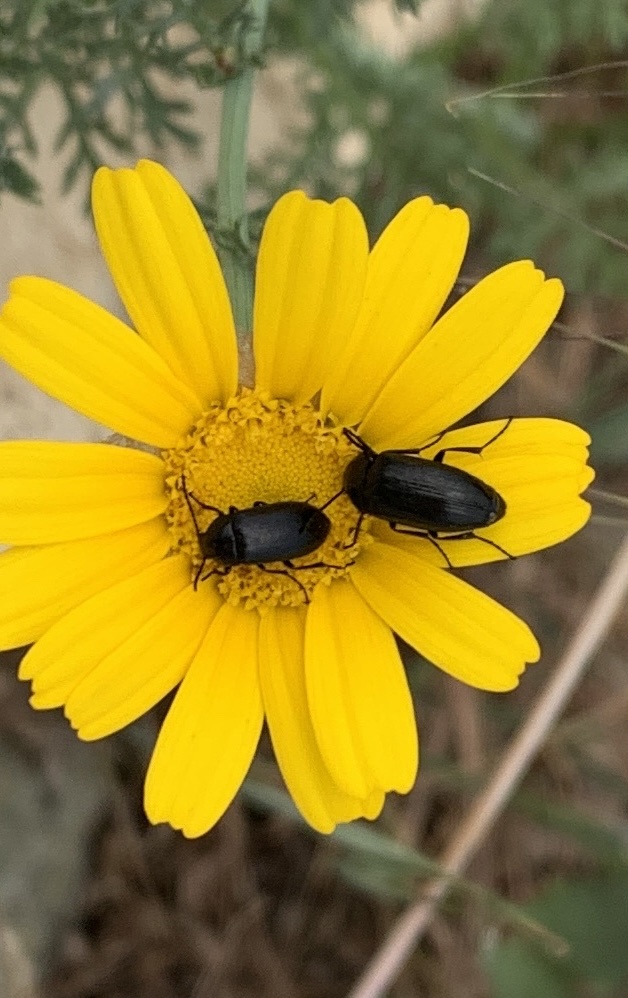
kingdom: Animalia
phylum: Arthropoda
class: Insecta
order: Coleoptera
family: Tenebrionidae
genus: Podonta
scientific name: Podonta aubei
